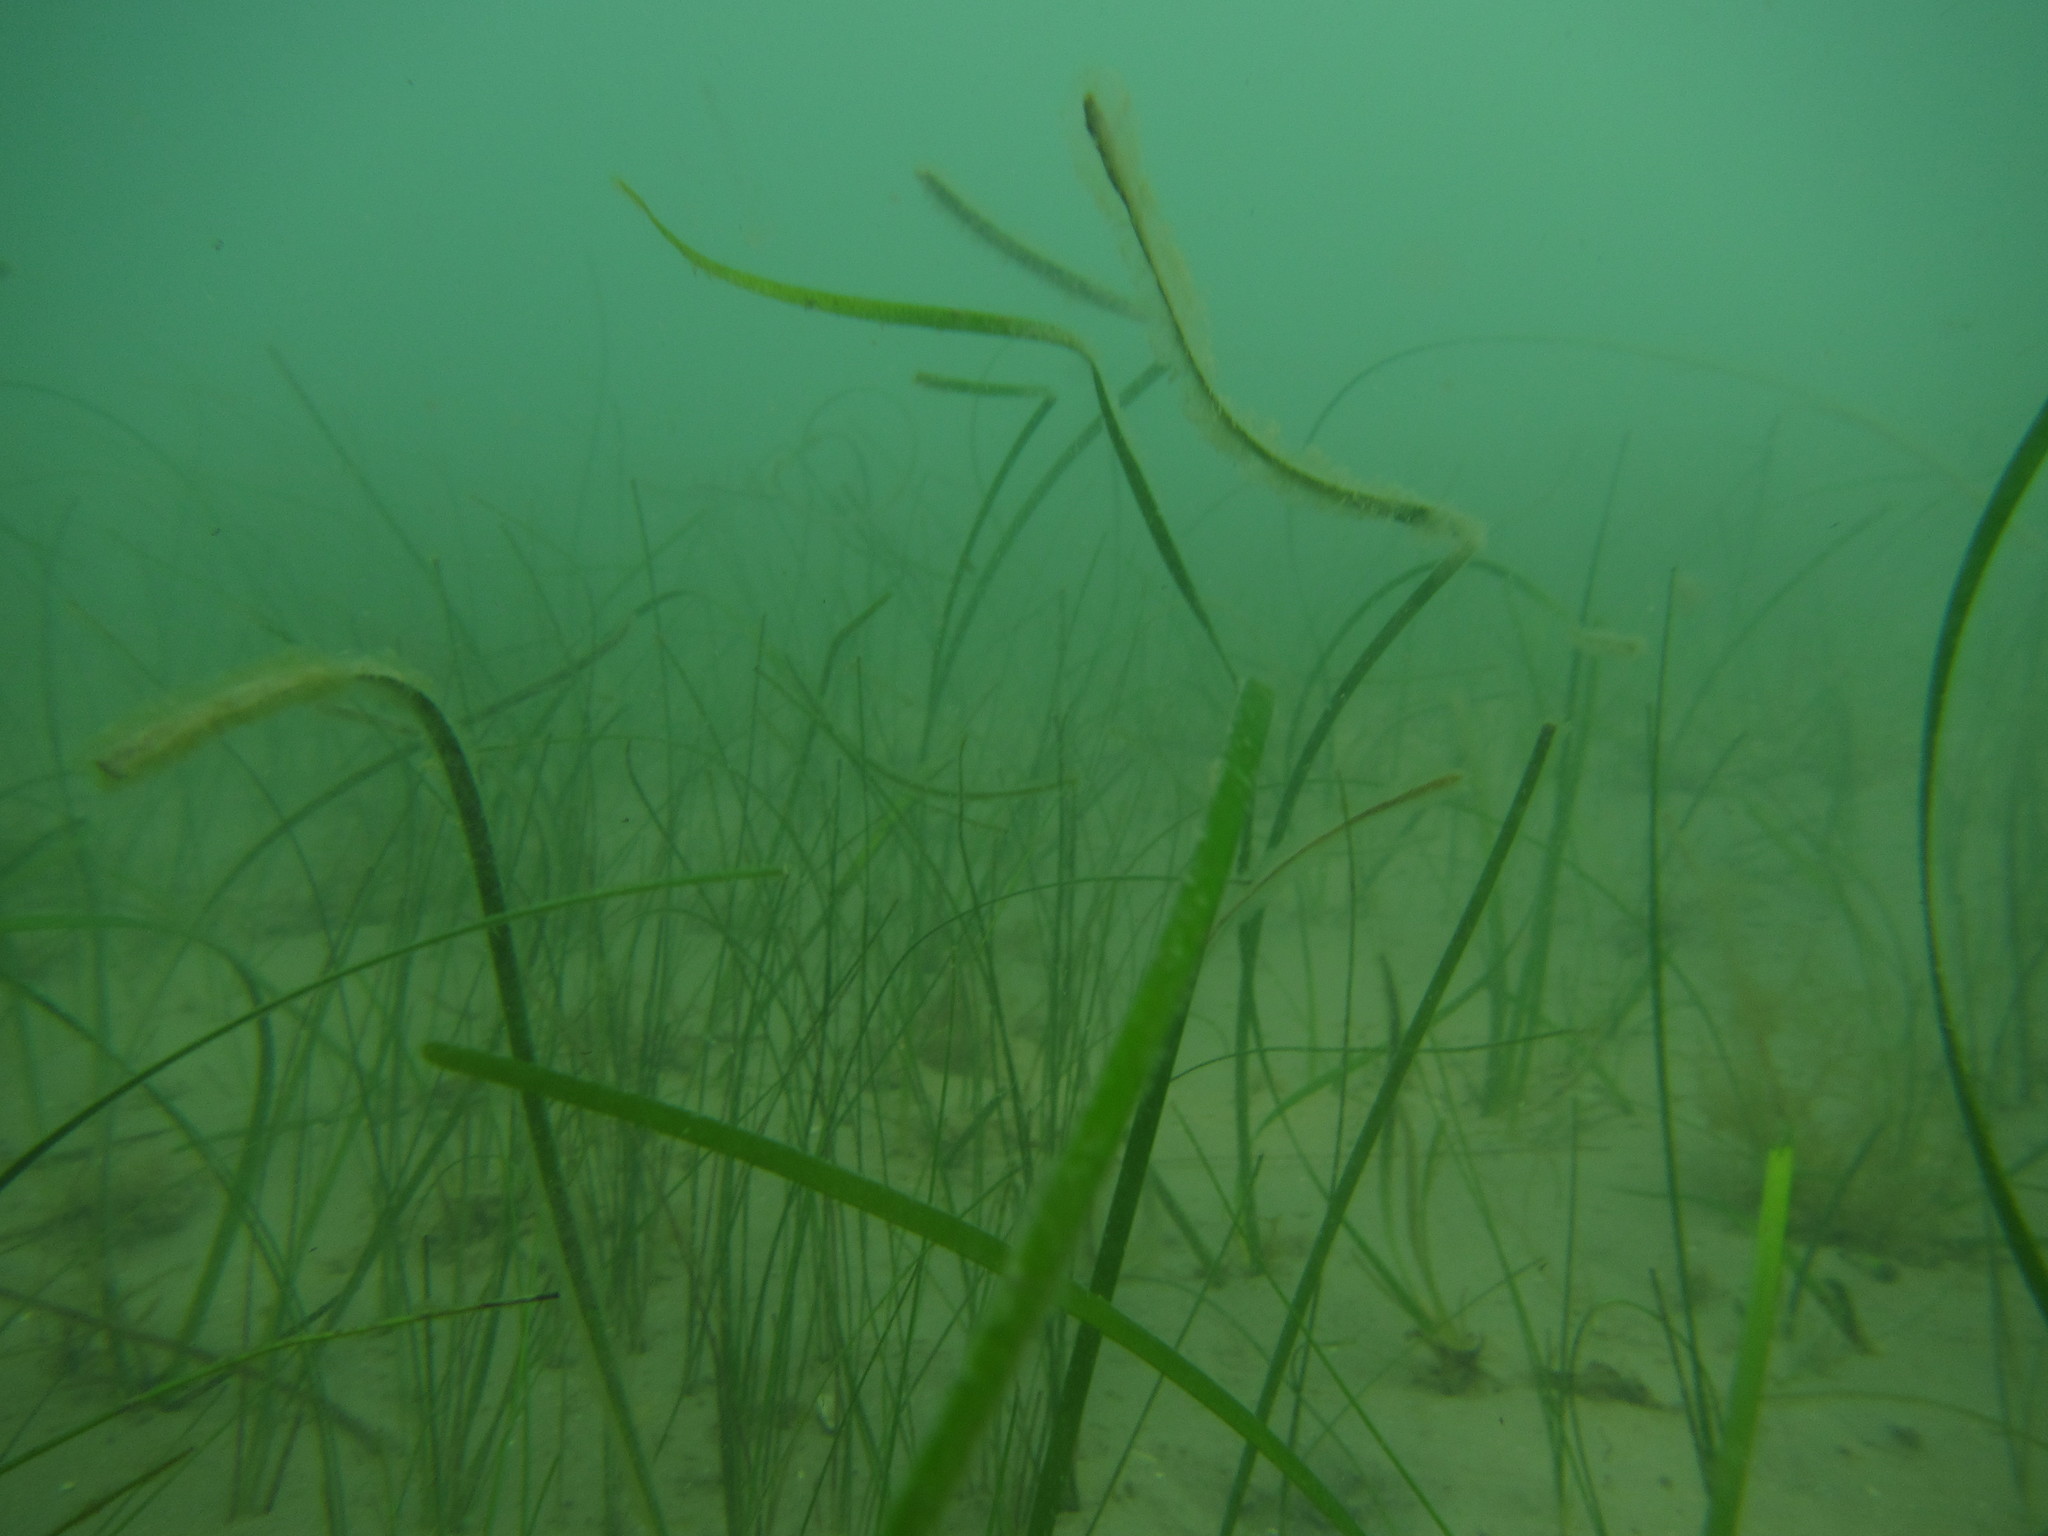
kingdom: Plantae
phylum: Tracheophyta
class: Liliopsida
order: Alismatales
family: Cymodoceaceae
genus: Cymodocea
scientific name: Cymodocea nodosa
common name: Slender seagrass
